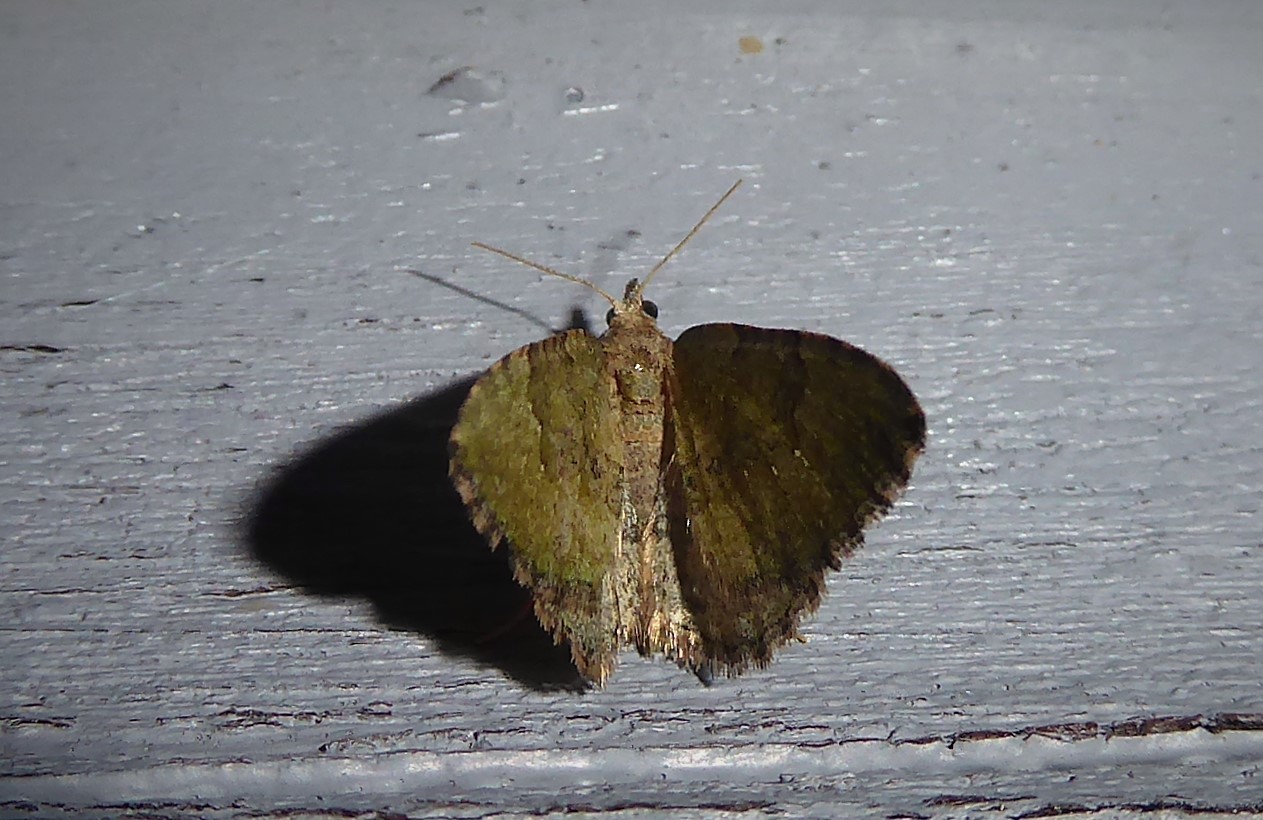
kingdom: Animalia
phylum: Arthropoda
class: Insecta
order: Lepidoptera
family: Geometridae
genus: Epyaxa
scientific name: Epyaxa rosearia
